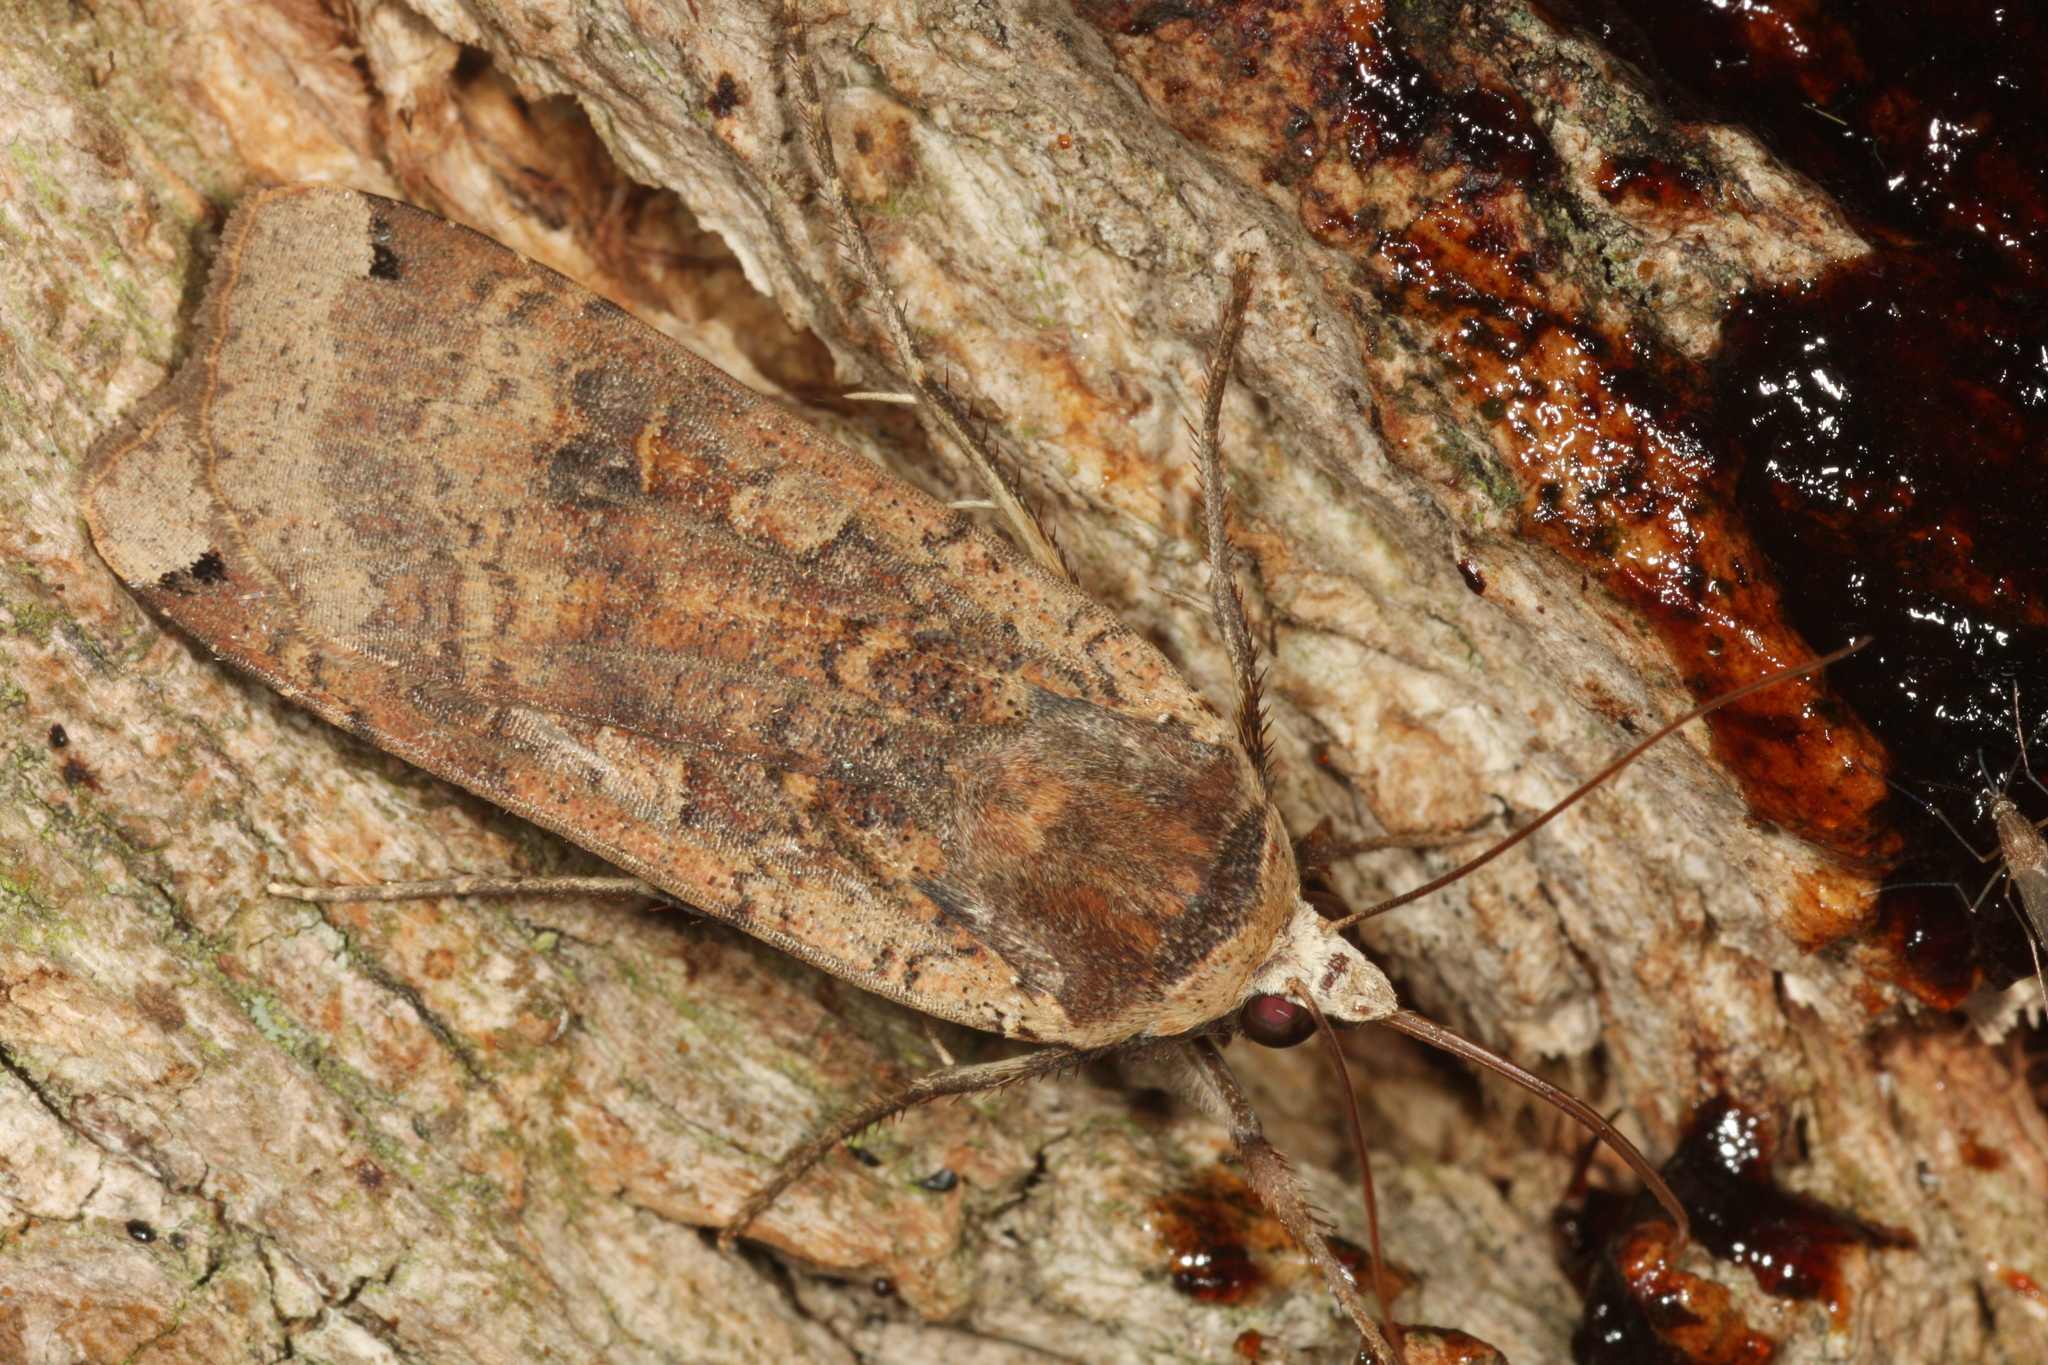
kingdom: Animalia
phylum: Arthropoda
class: Insecta
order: Lepidoptera
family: Noctuidae
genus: Noctua
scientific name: Noctua pronuba
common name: Large yellow underwing
